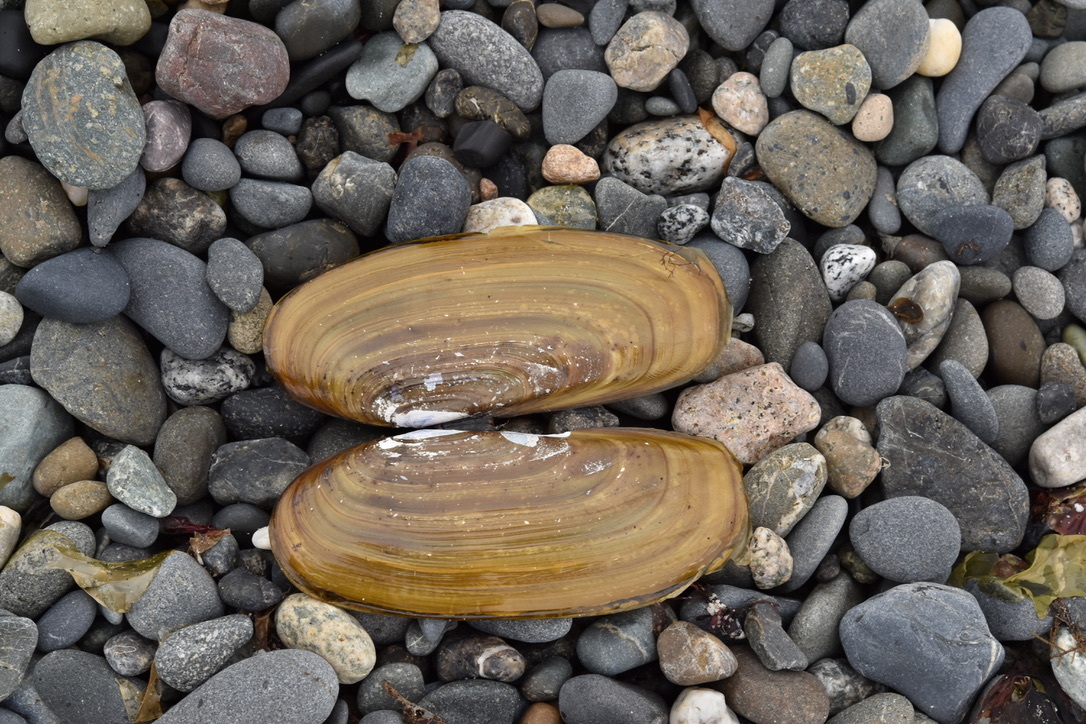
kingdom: Animalia
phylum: Mollusca
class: Bivalvia
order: Adapedonta
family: Pharidae
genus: Siliqua
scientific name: Siliqua patula
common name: Pacific razor clam
